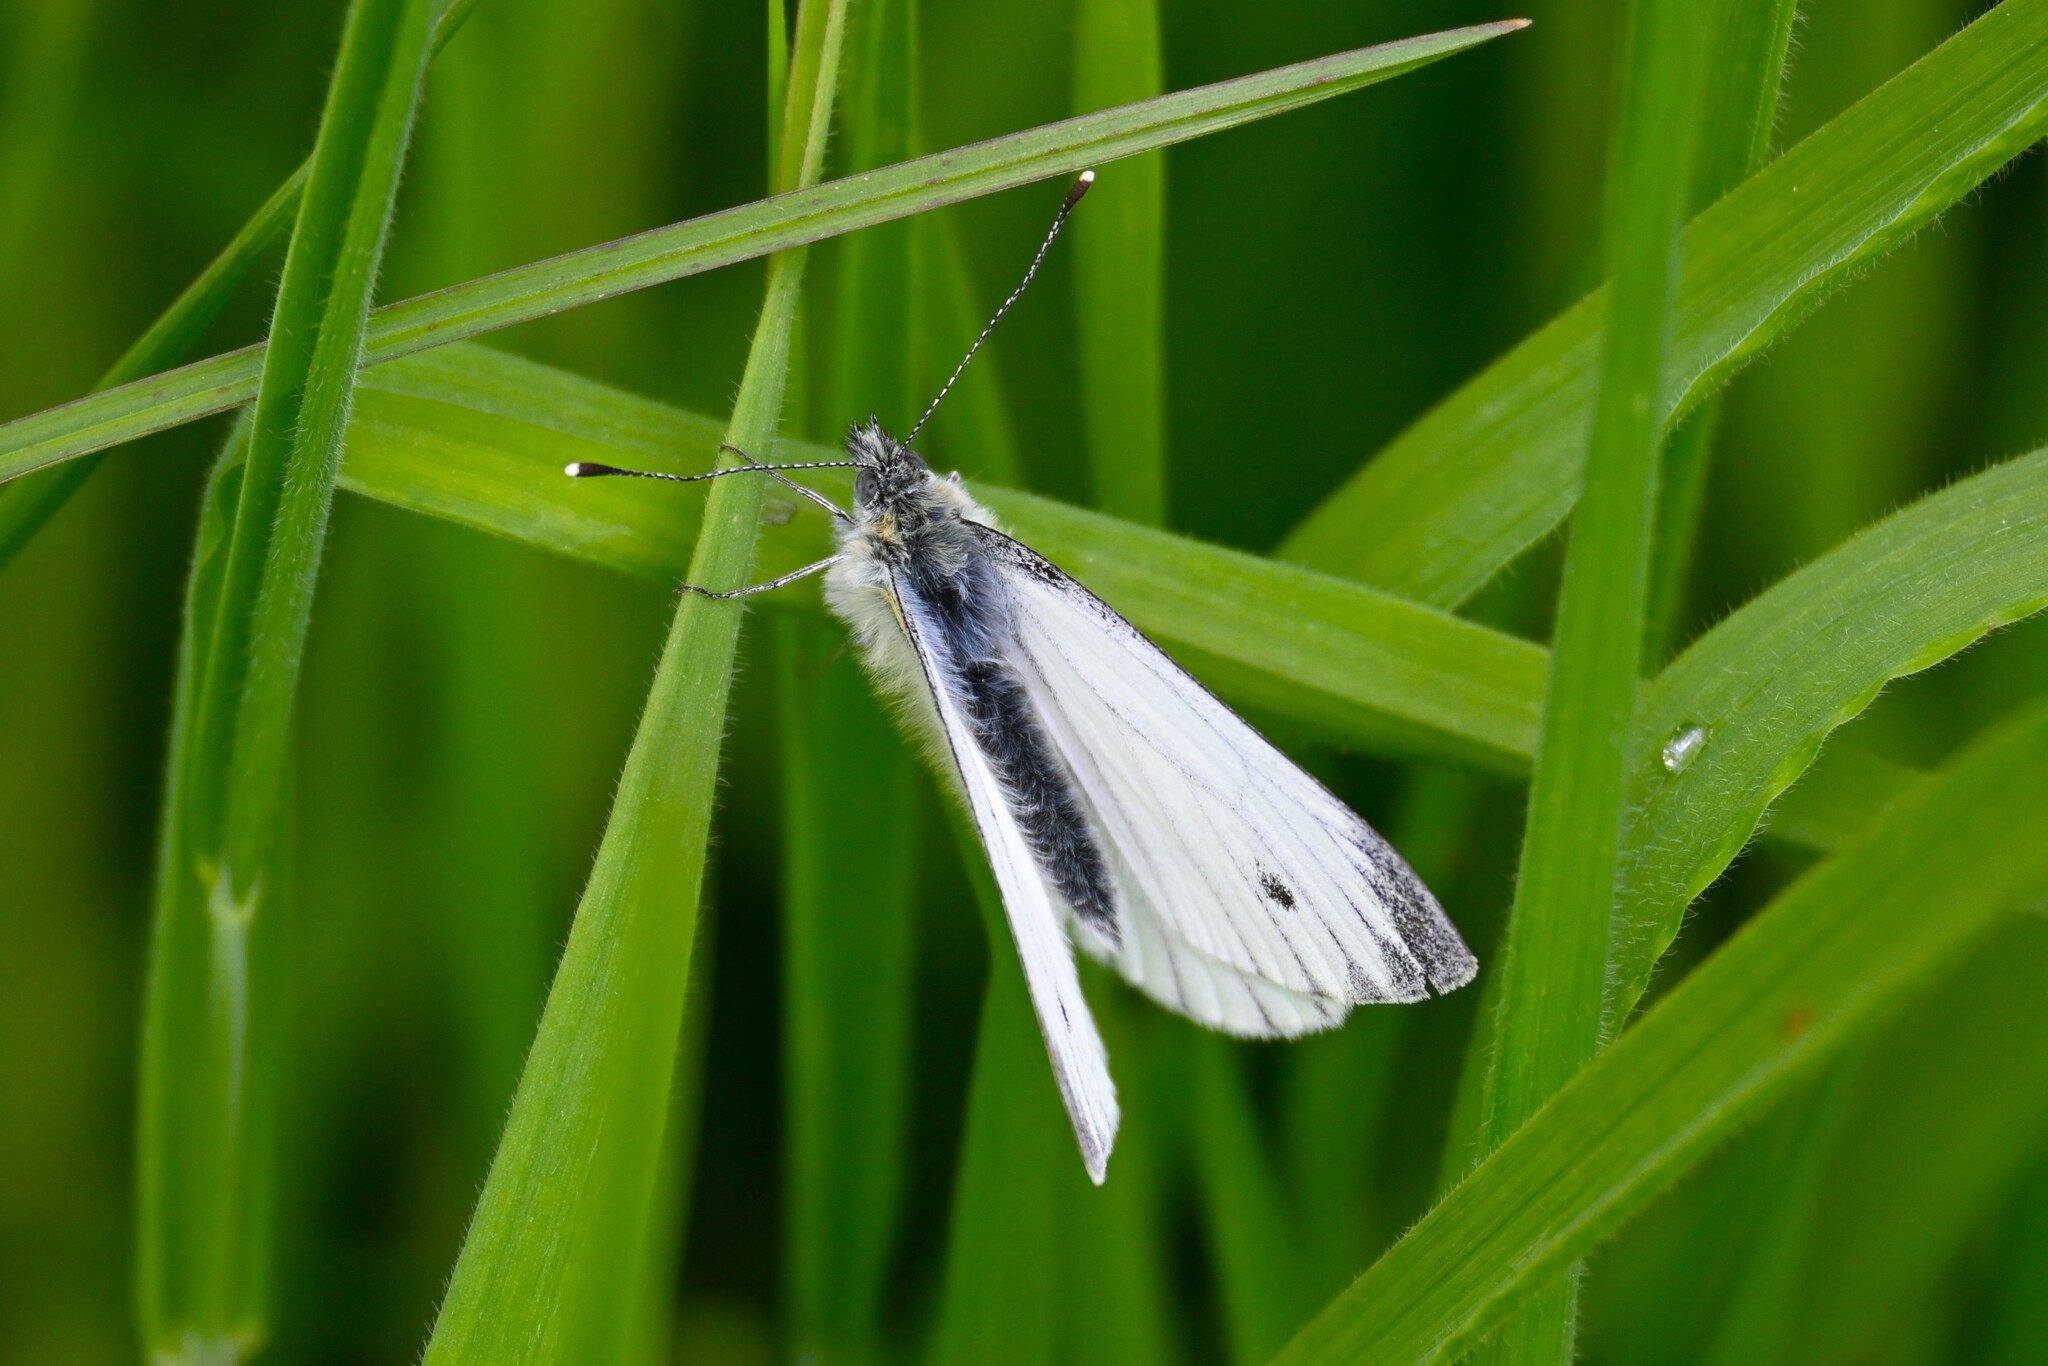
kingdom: Animalia
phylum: Arthropoda
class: Insecta
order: Lepidoptera
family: Pieridae
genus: Pieris
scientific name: Pieris napi
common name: Green-veined white
